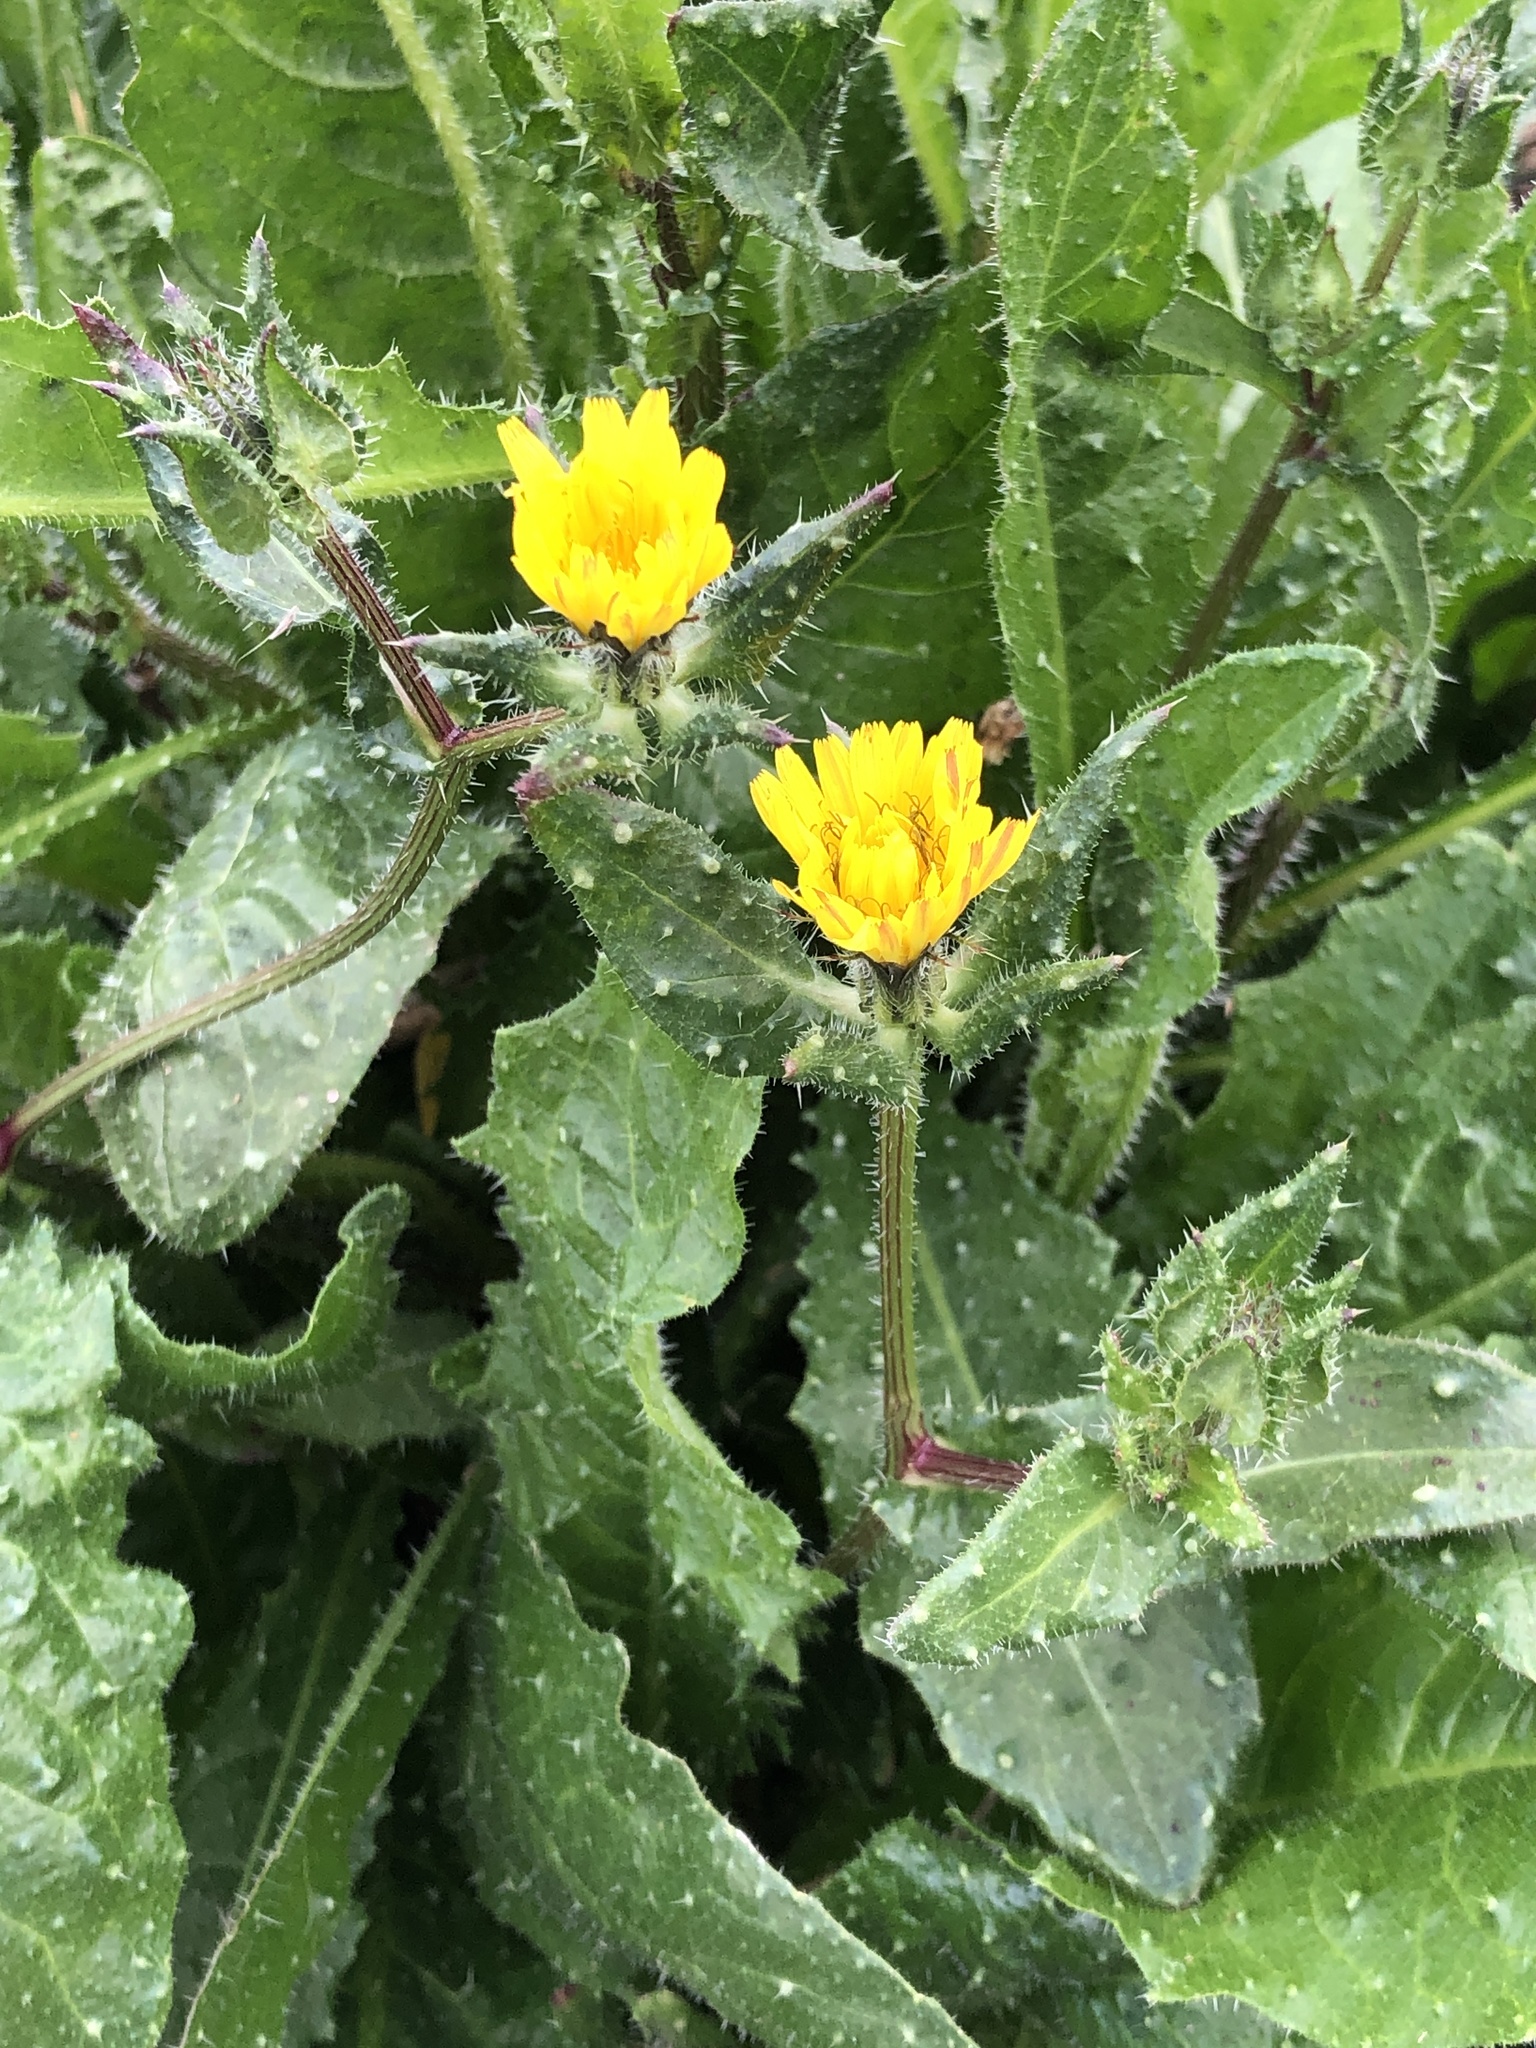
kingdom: Plantae
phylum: Tracheophyta
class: Magnoliopsida
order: Asterales
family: Asteraceae
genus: Helminthotheca
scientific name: Helminthotheca echioides
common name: Ox-tongue
